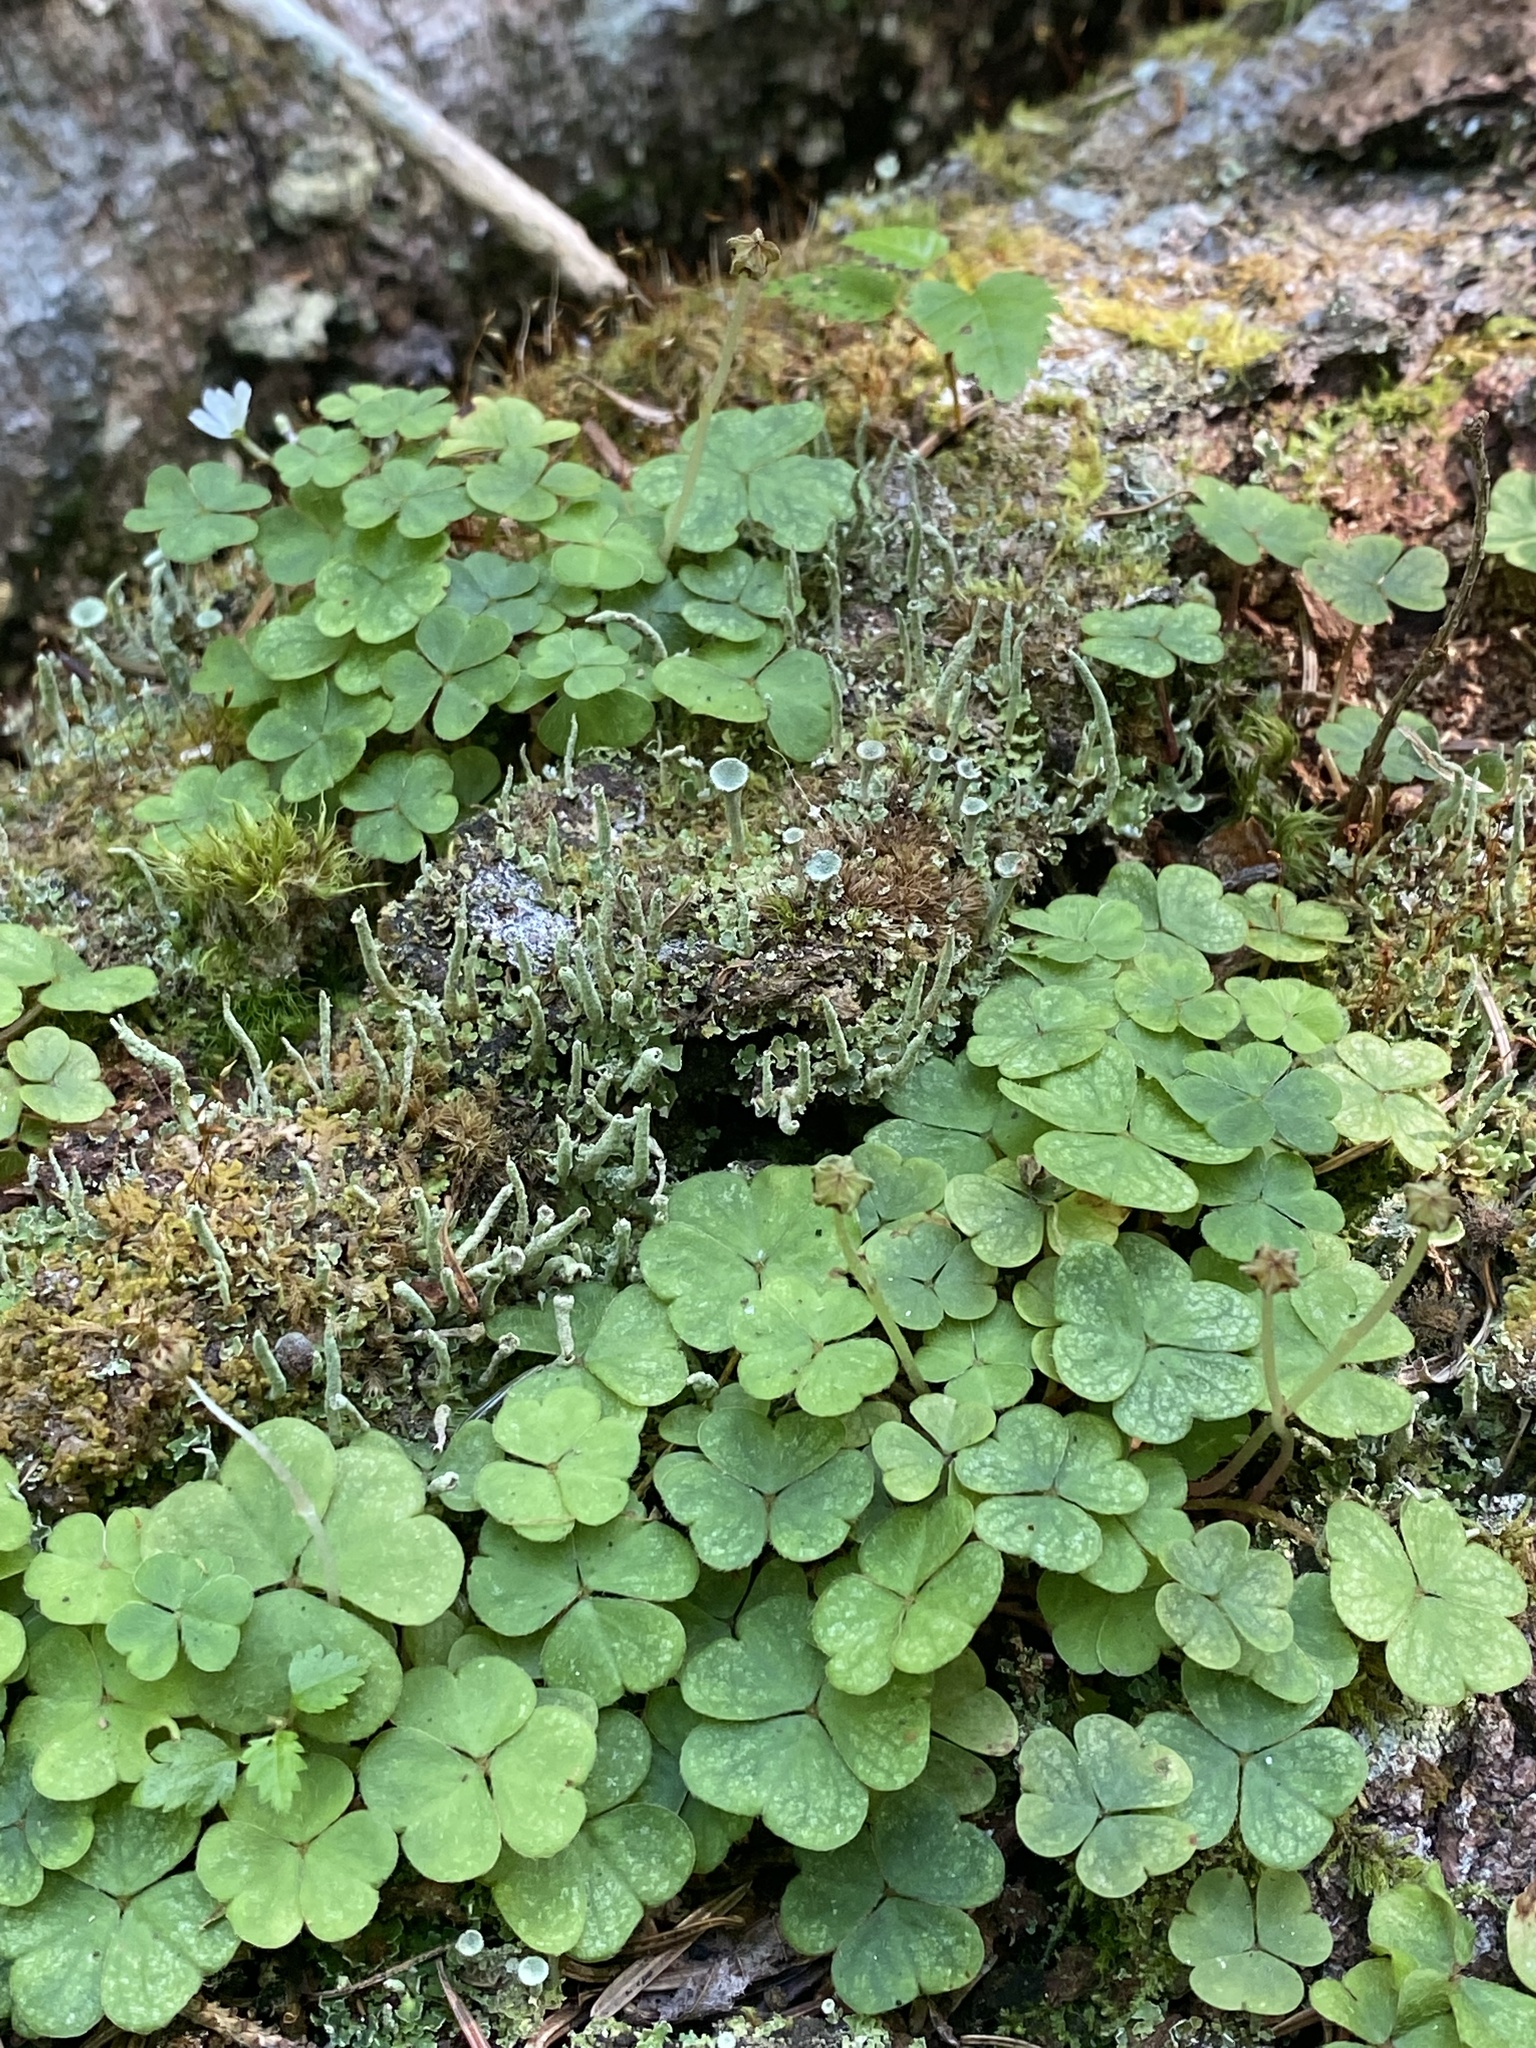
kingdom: Plantae
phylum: Tracheophyta
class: Magnoliopsida
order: Oxalidales
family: Oxalidaceae
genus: Oxalis
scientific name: Oxalis montana
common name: American wood-sorrel
